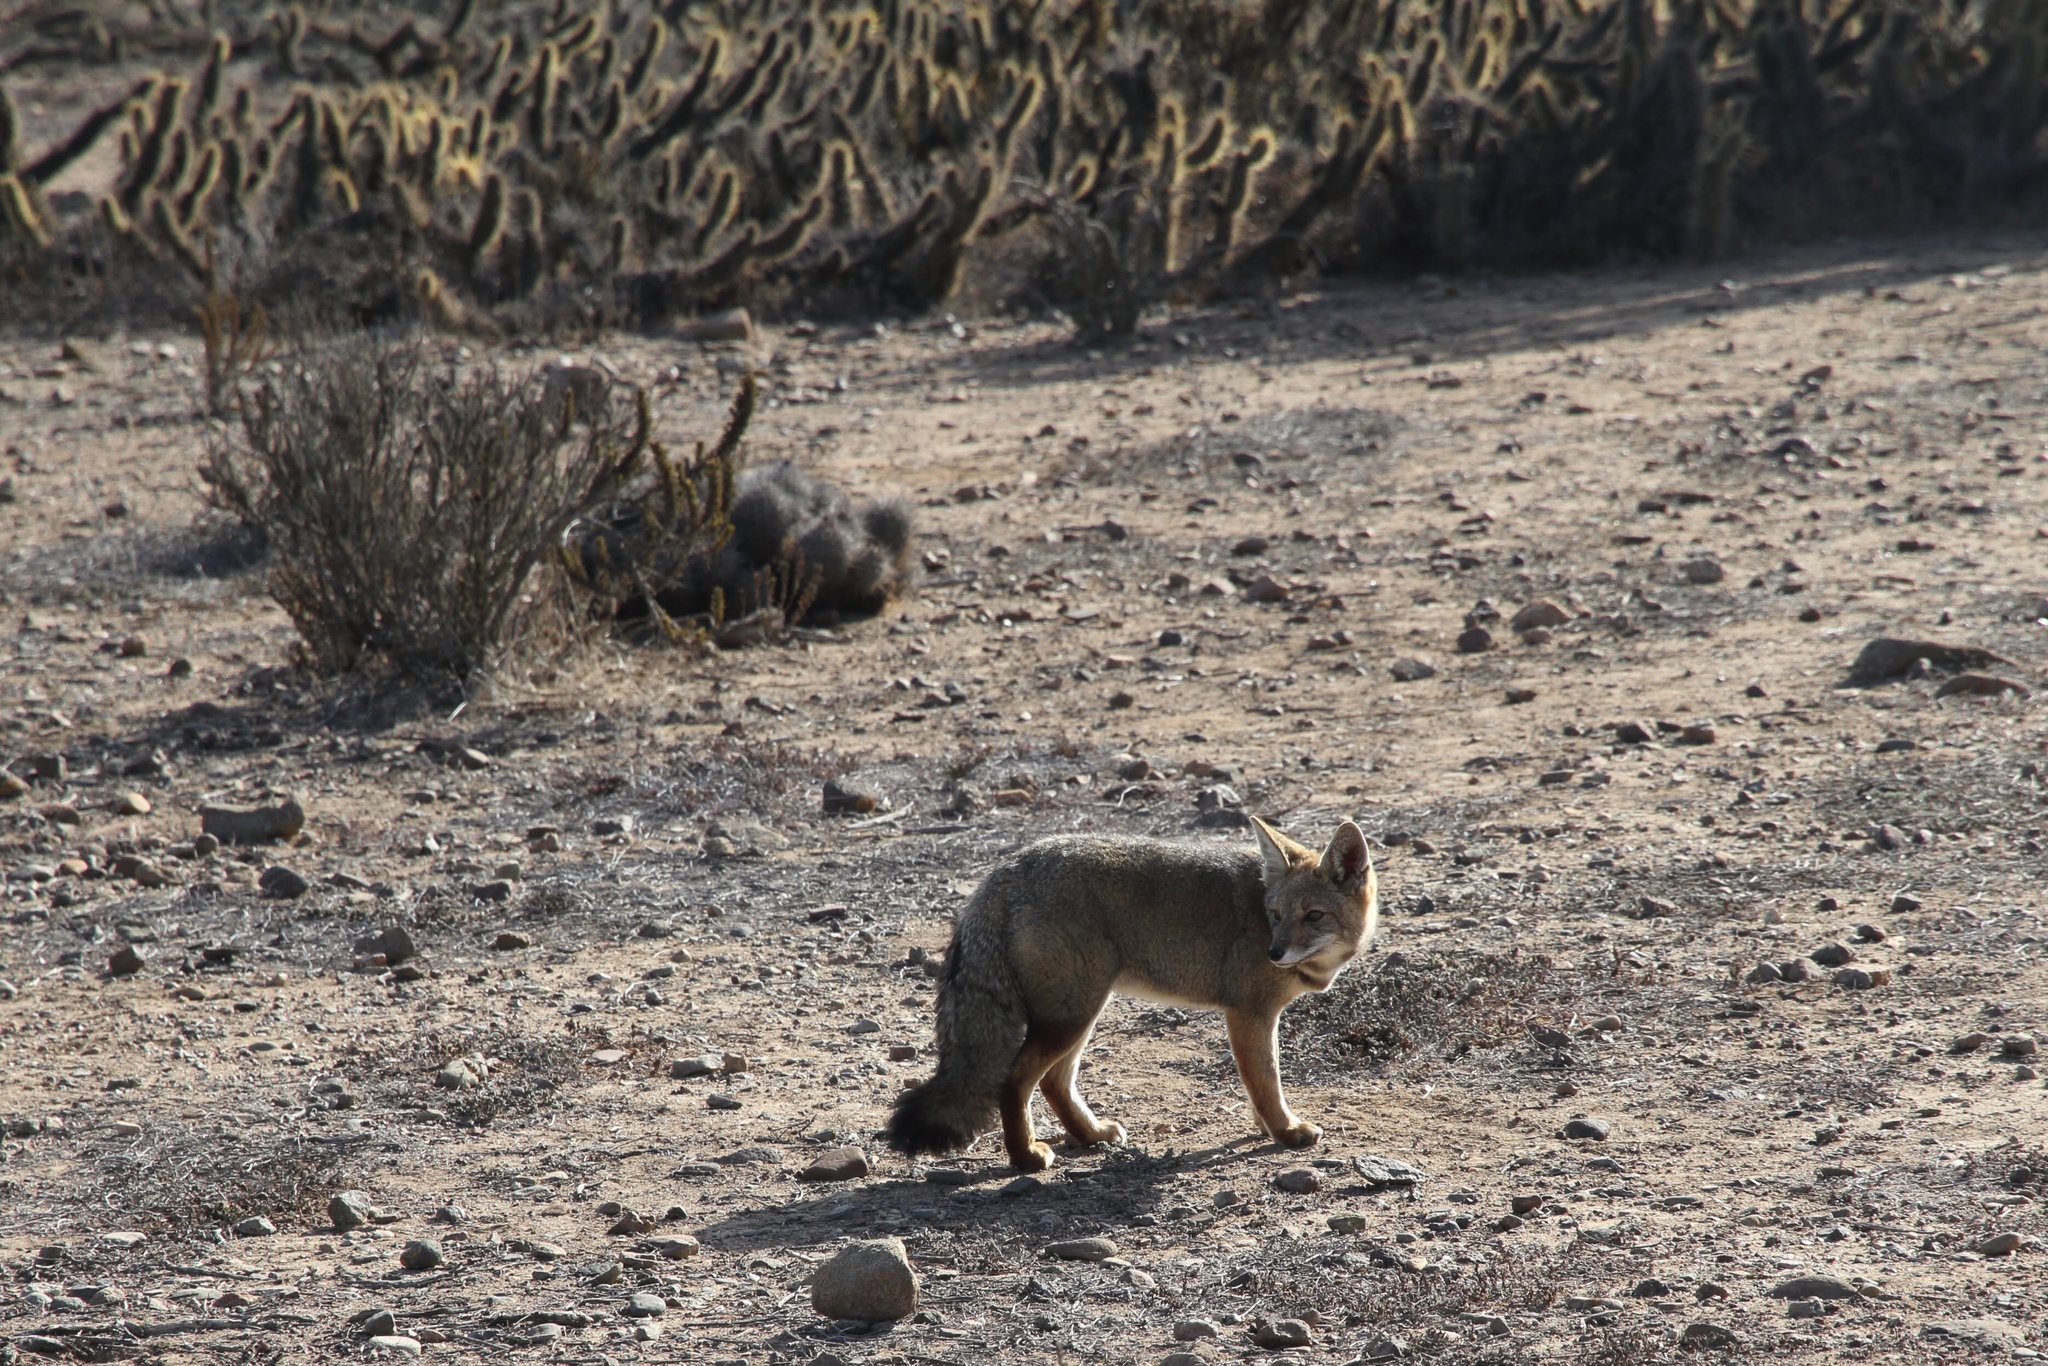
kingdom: Animalia
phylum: Chordata
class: Mammalia
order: Carnivora
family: Canidae
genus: Lycalopex
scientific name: Lycalopex gymnocercus
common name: Pampas fox
